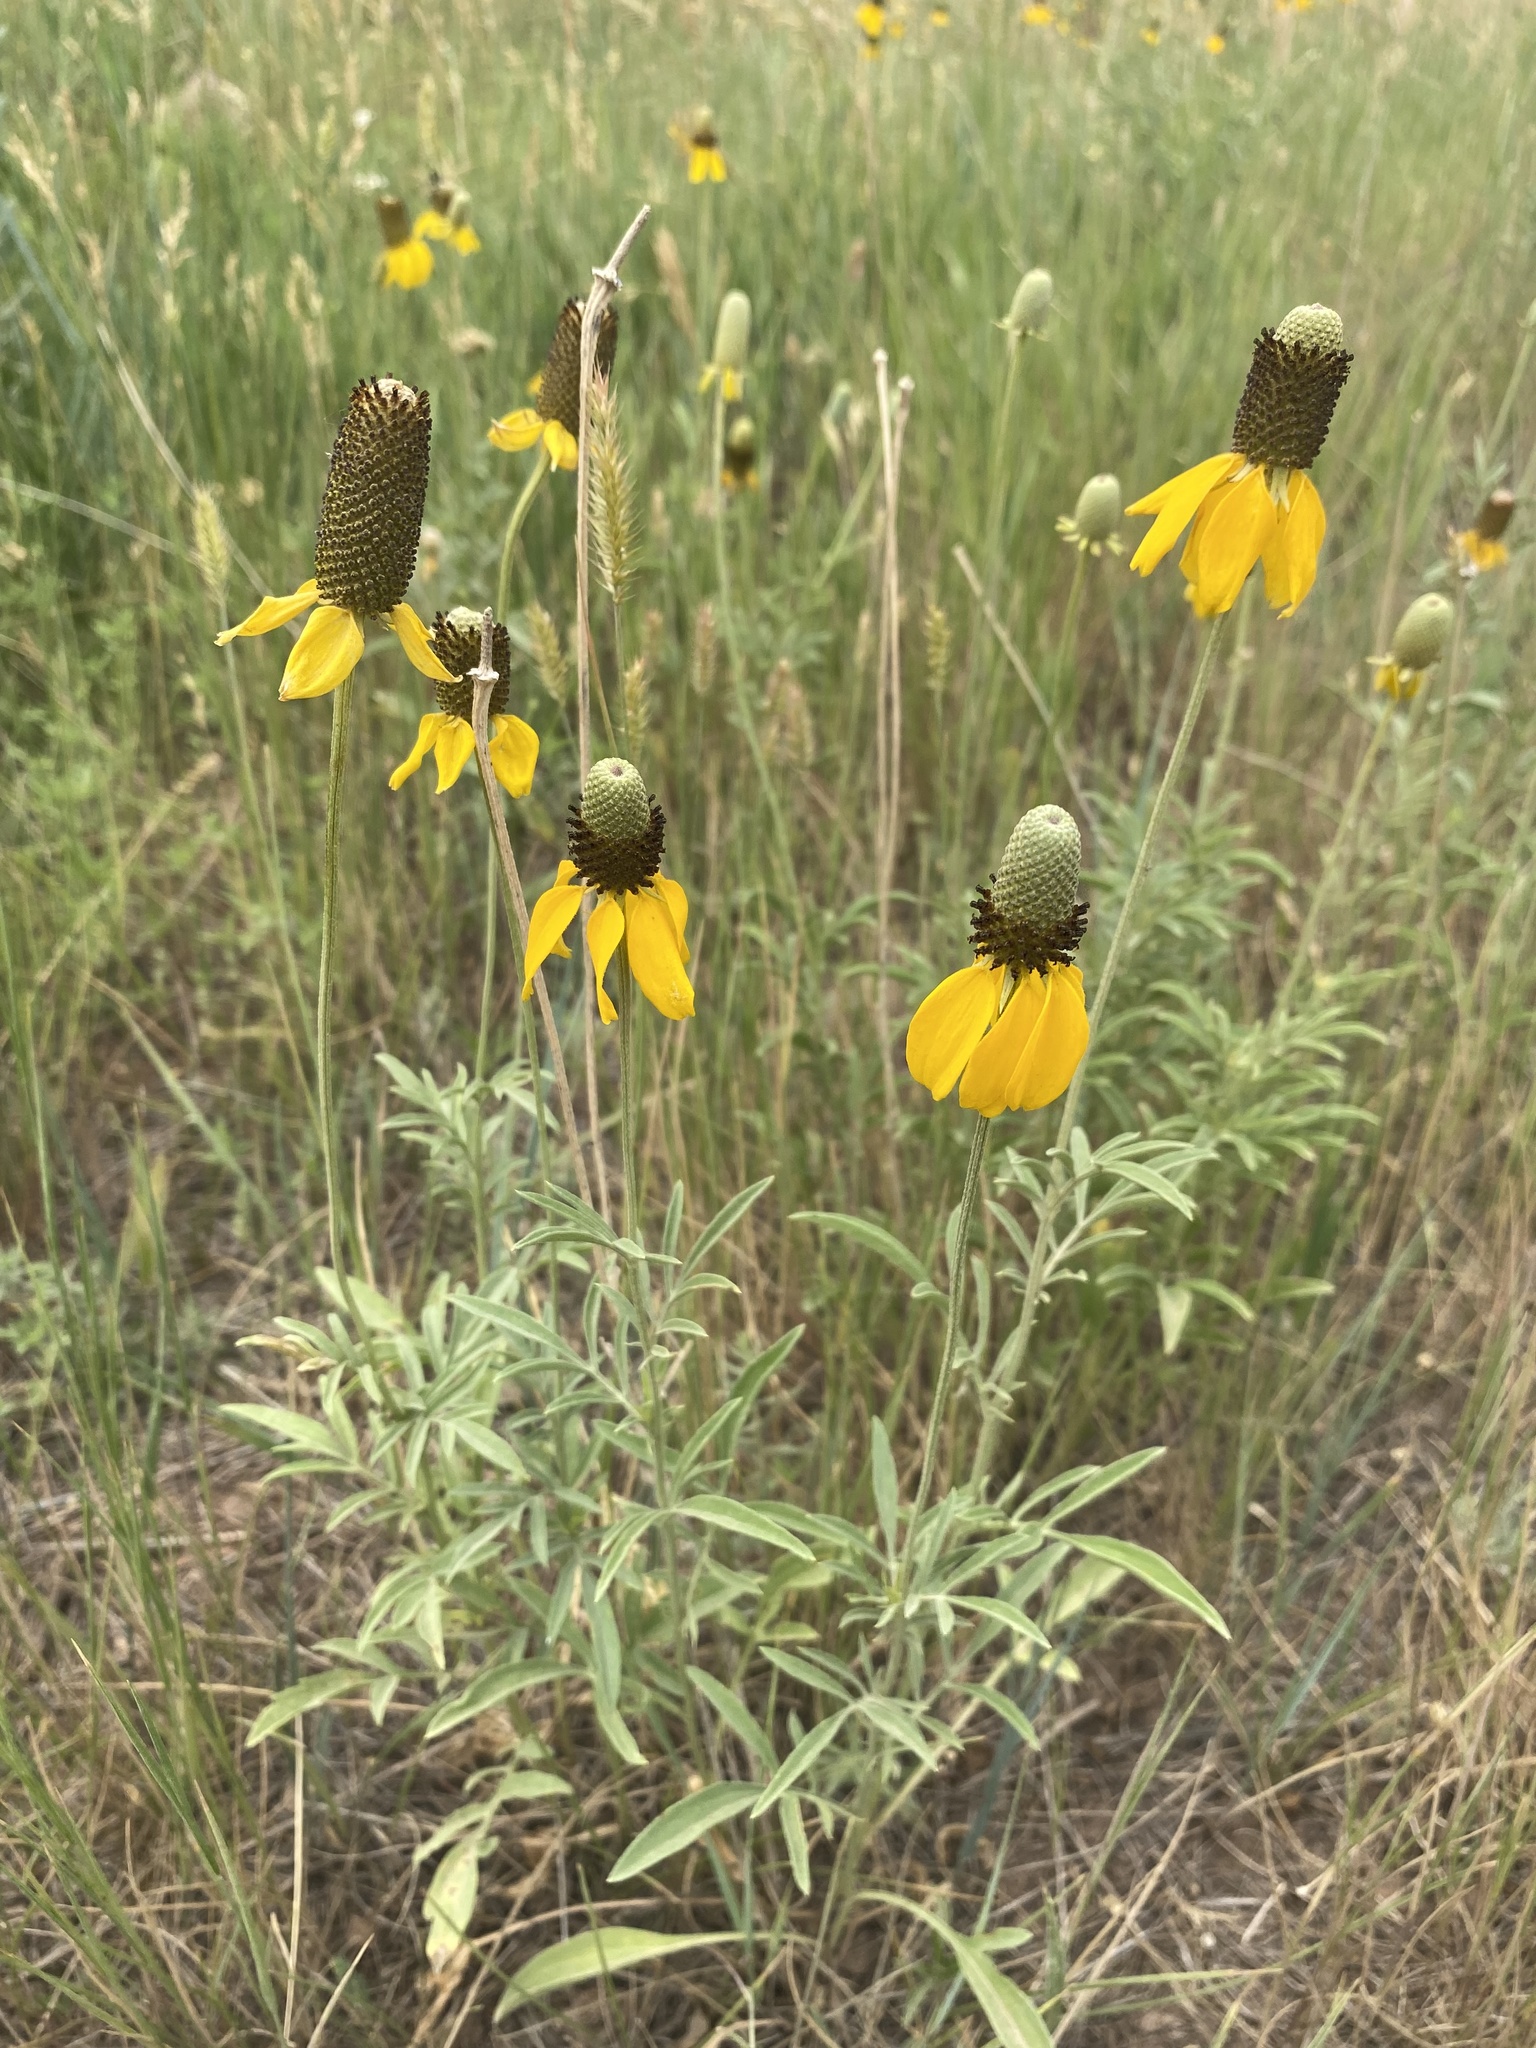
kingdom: Plantae
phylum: Tracheophyta
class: Magnoliopsida
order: Asterales
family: Asteraceae
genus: Ratibida
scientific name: Ratibida columnifera
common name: Prairie coneflower
